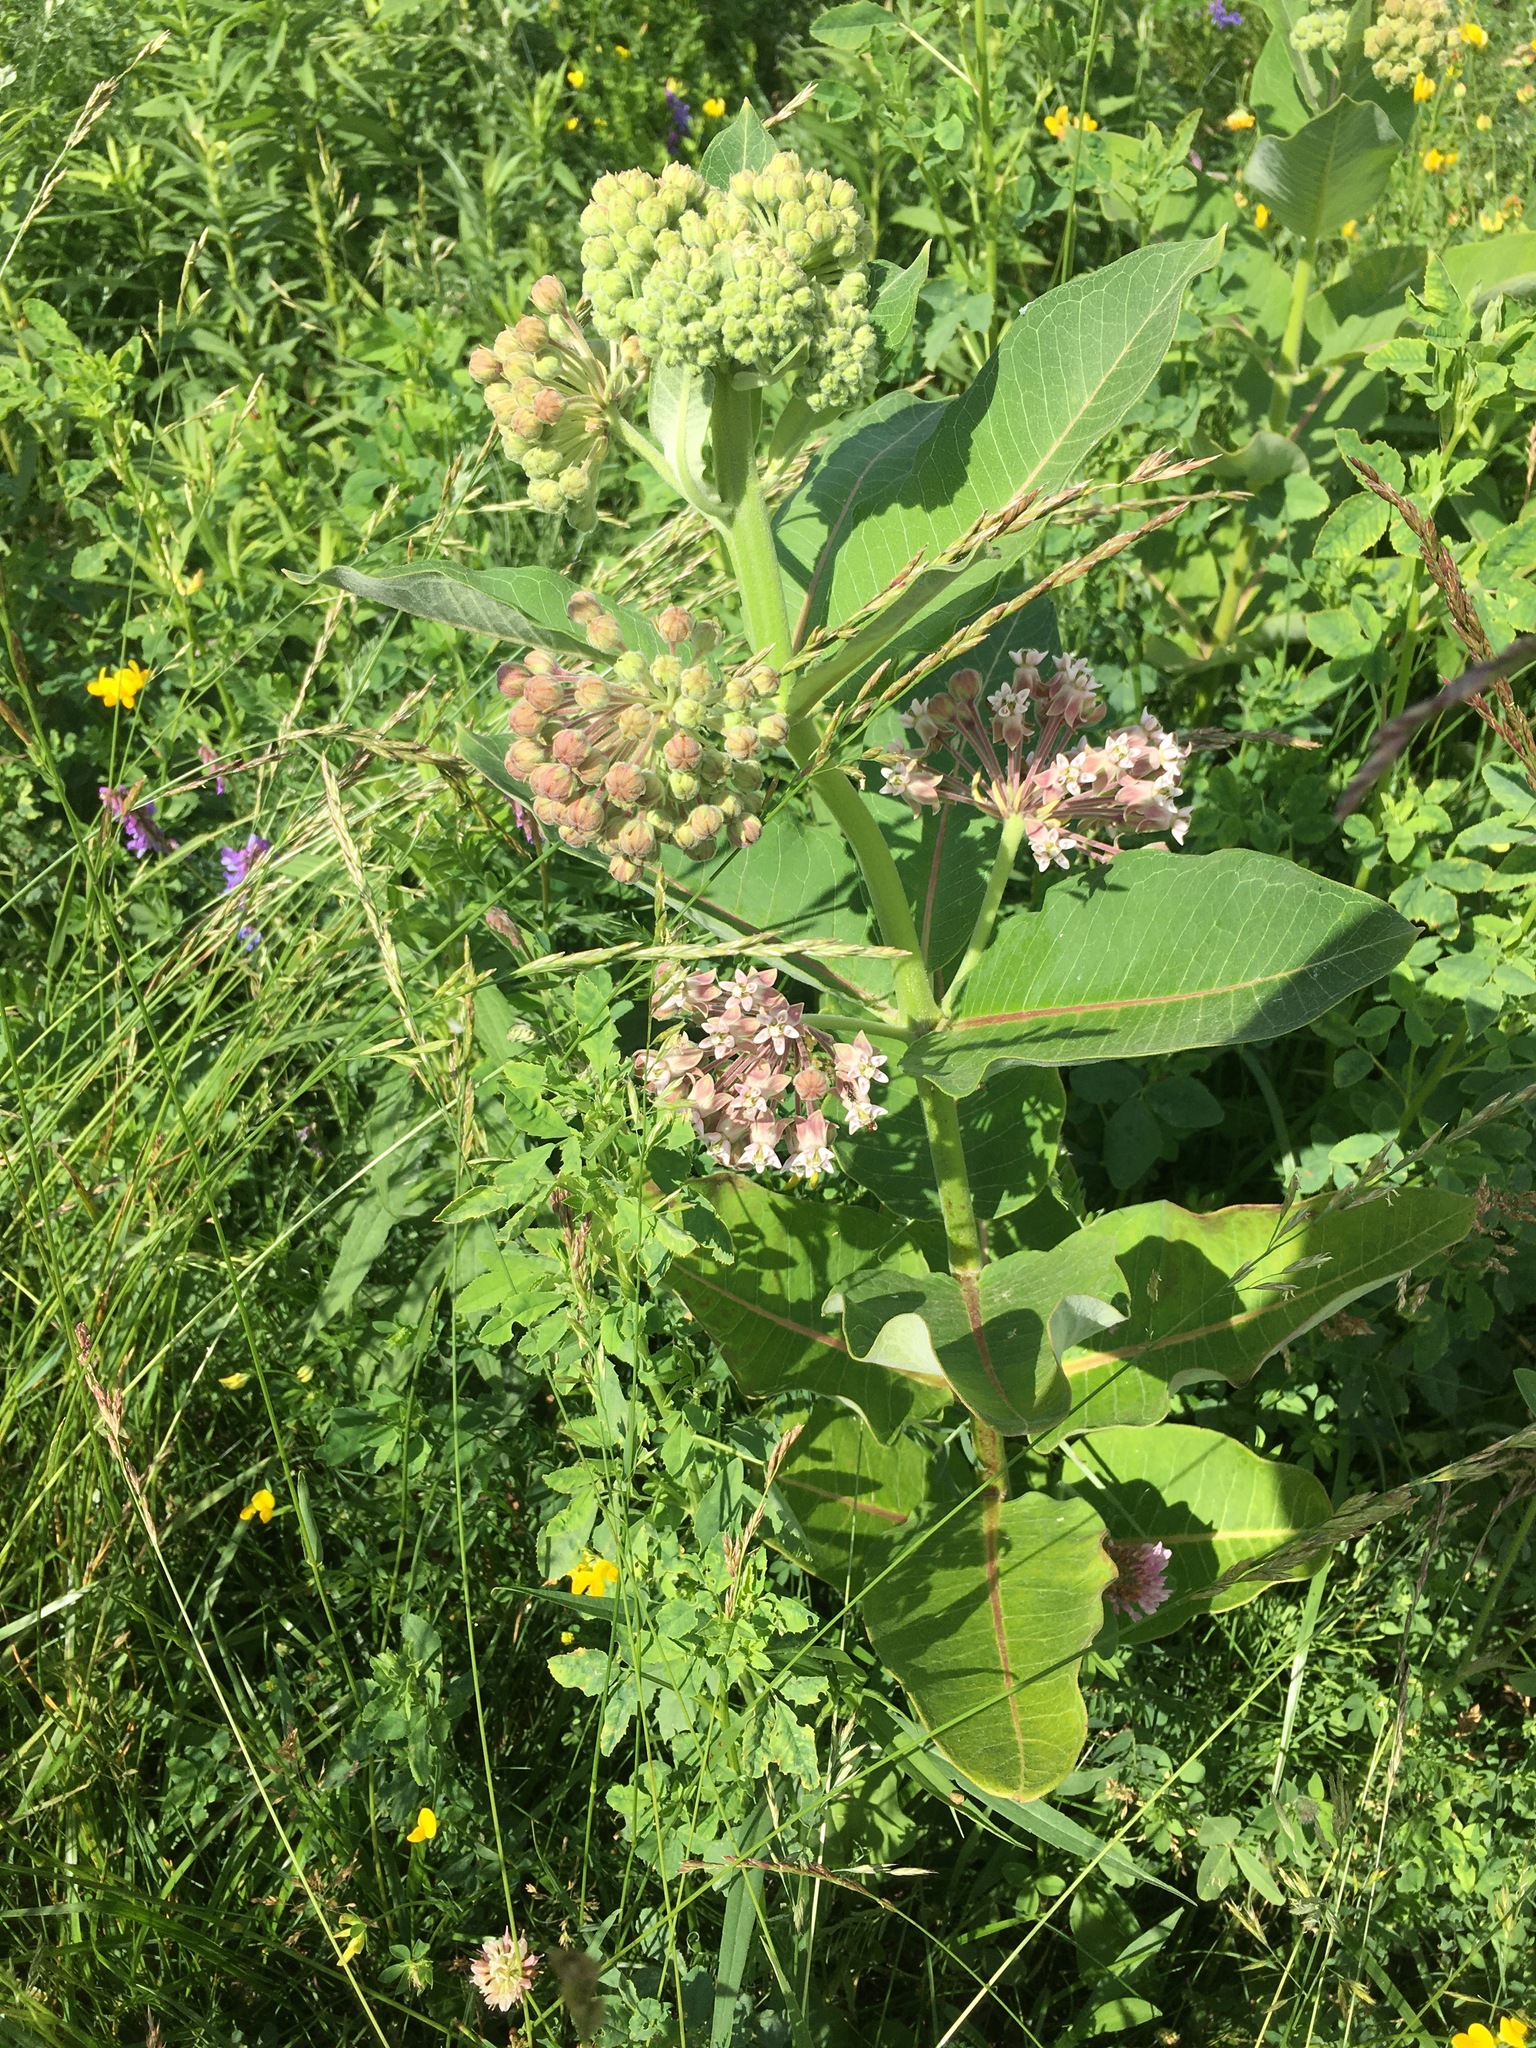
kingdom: Plantae
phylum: Tracheophyta
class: Magnoliopsida
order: Gentianales
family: Apocynaceae
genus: Asclepias
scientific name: Asclepias syriaca
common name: Common milkweed
